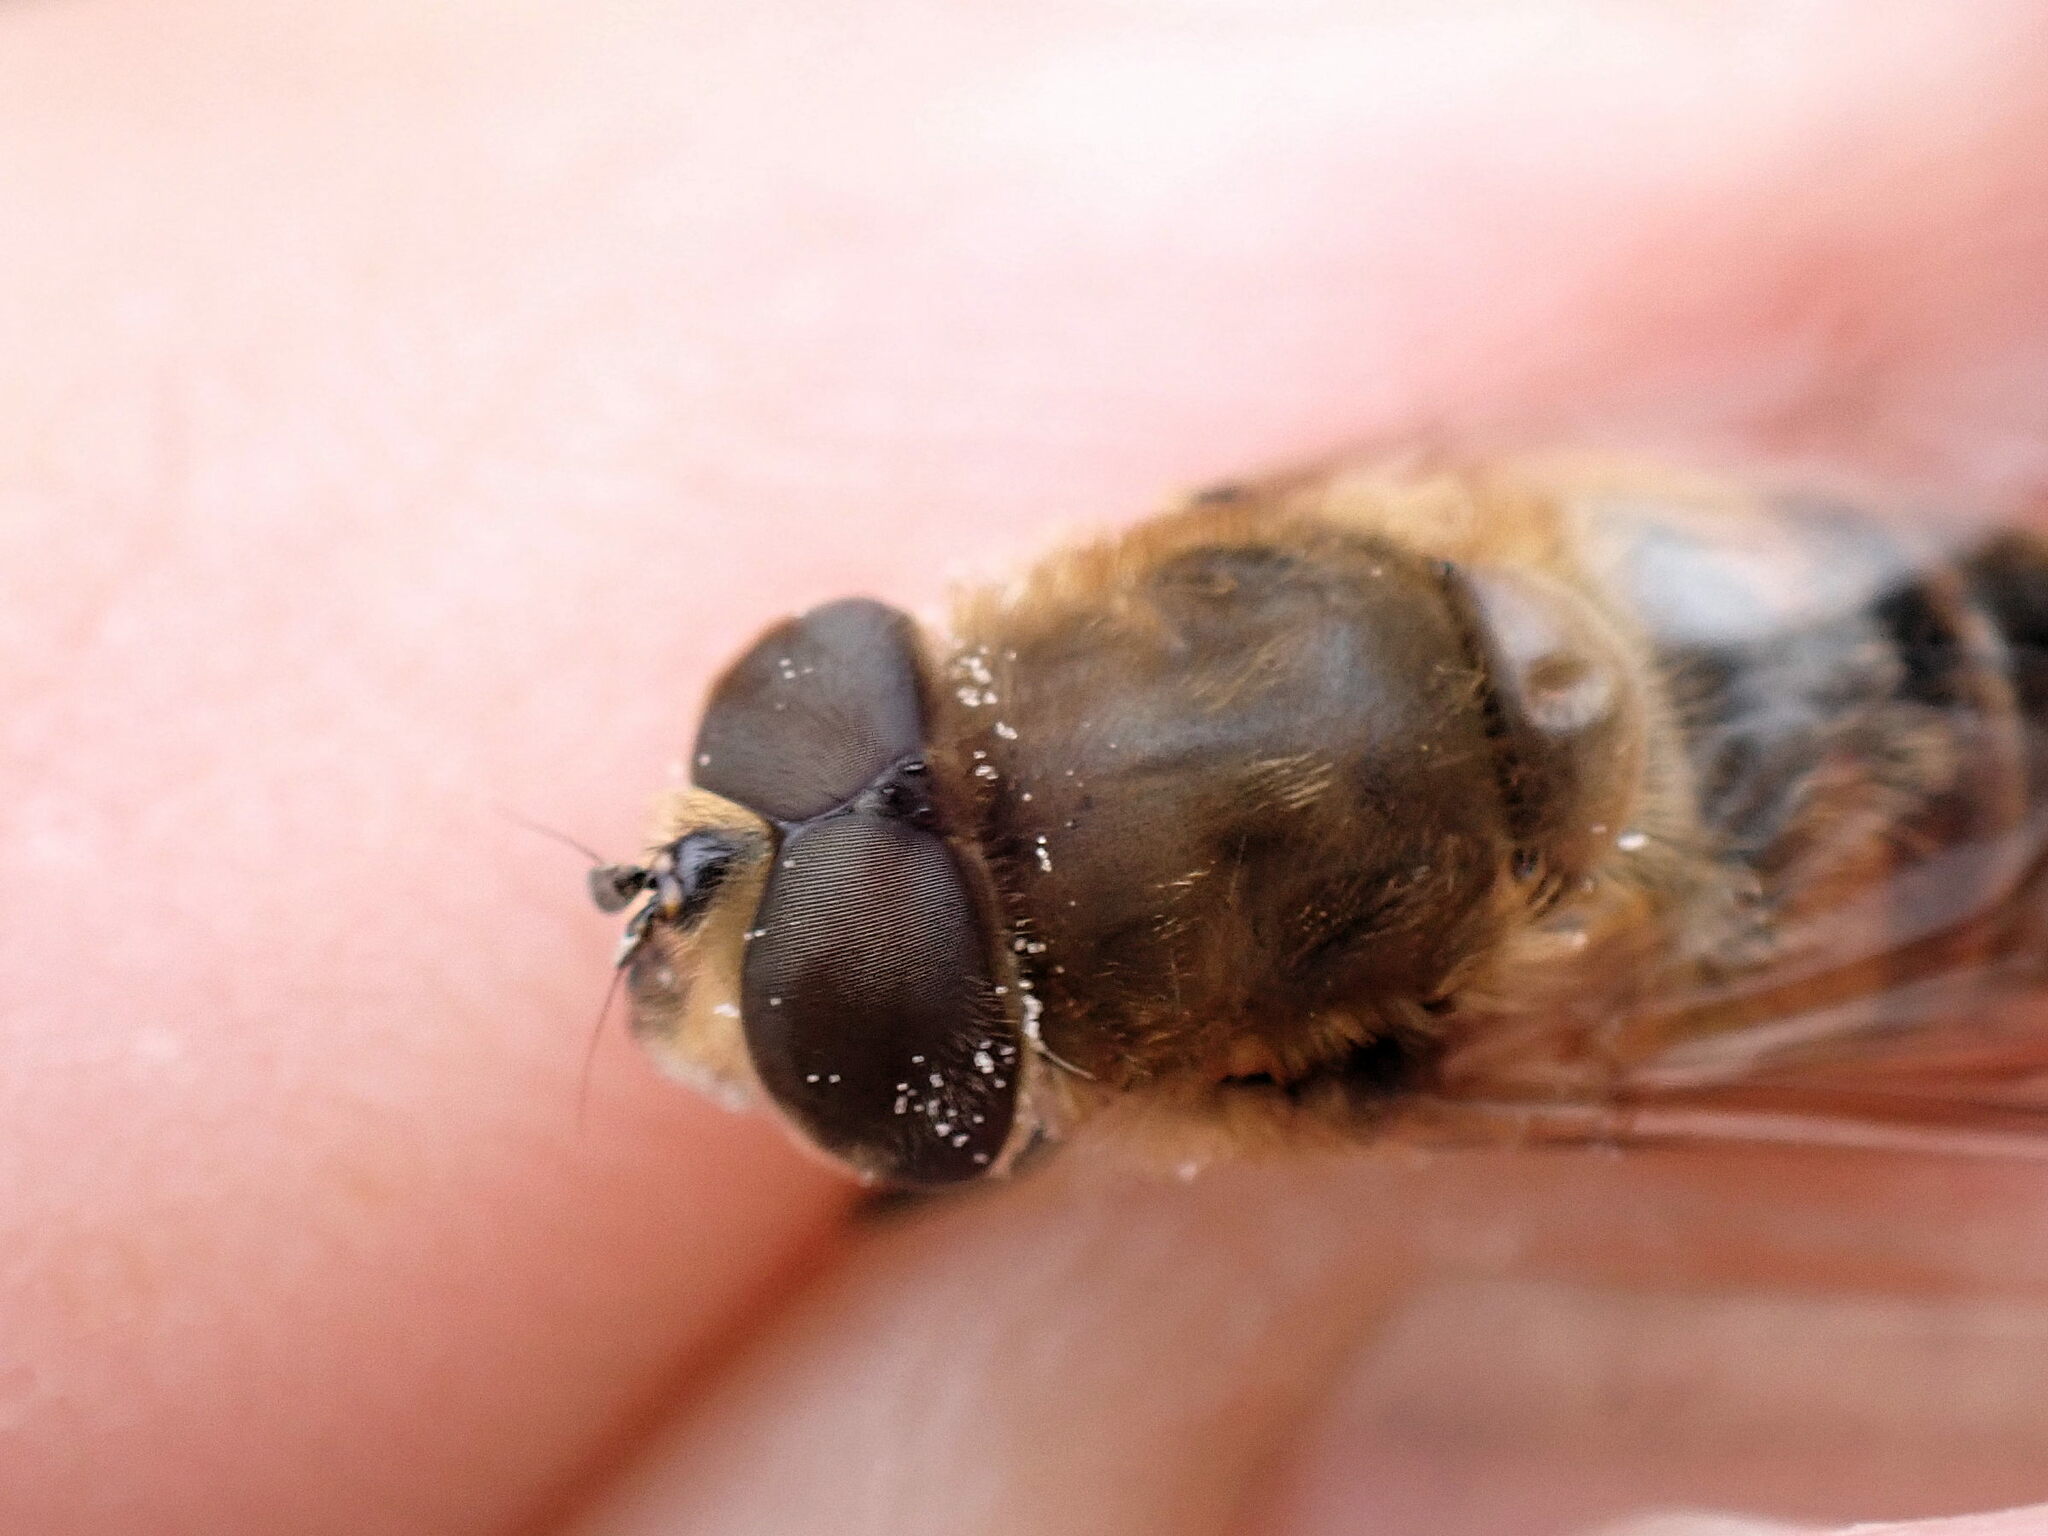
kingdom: Animalia
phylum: Arthropoda
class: Insecta
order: Diptera
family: Syrphidae
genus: Eristalis
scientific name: Eristalis tenax
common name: Drone fly
